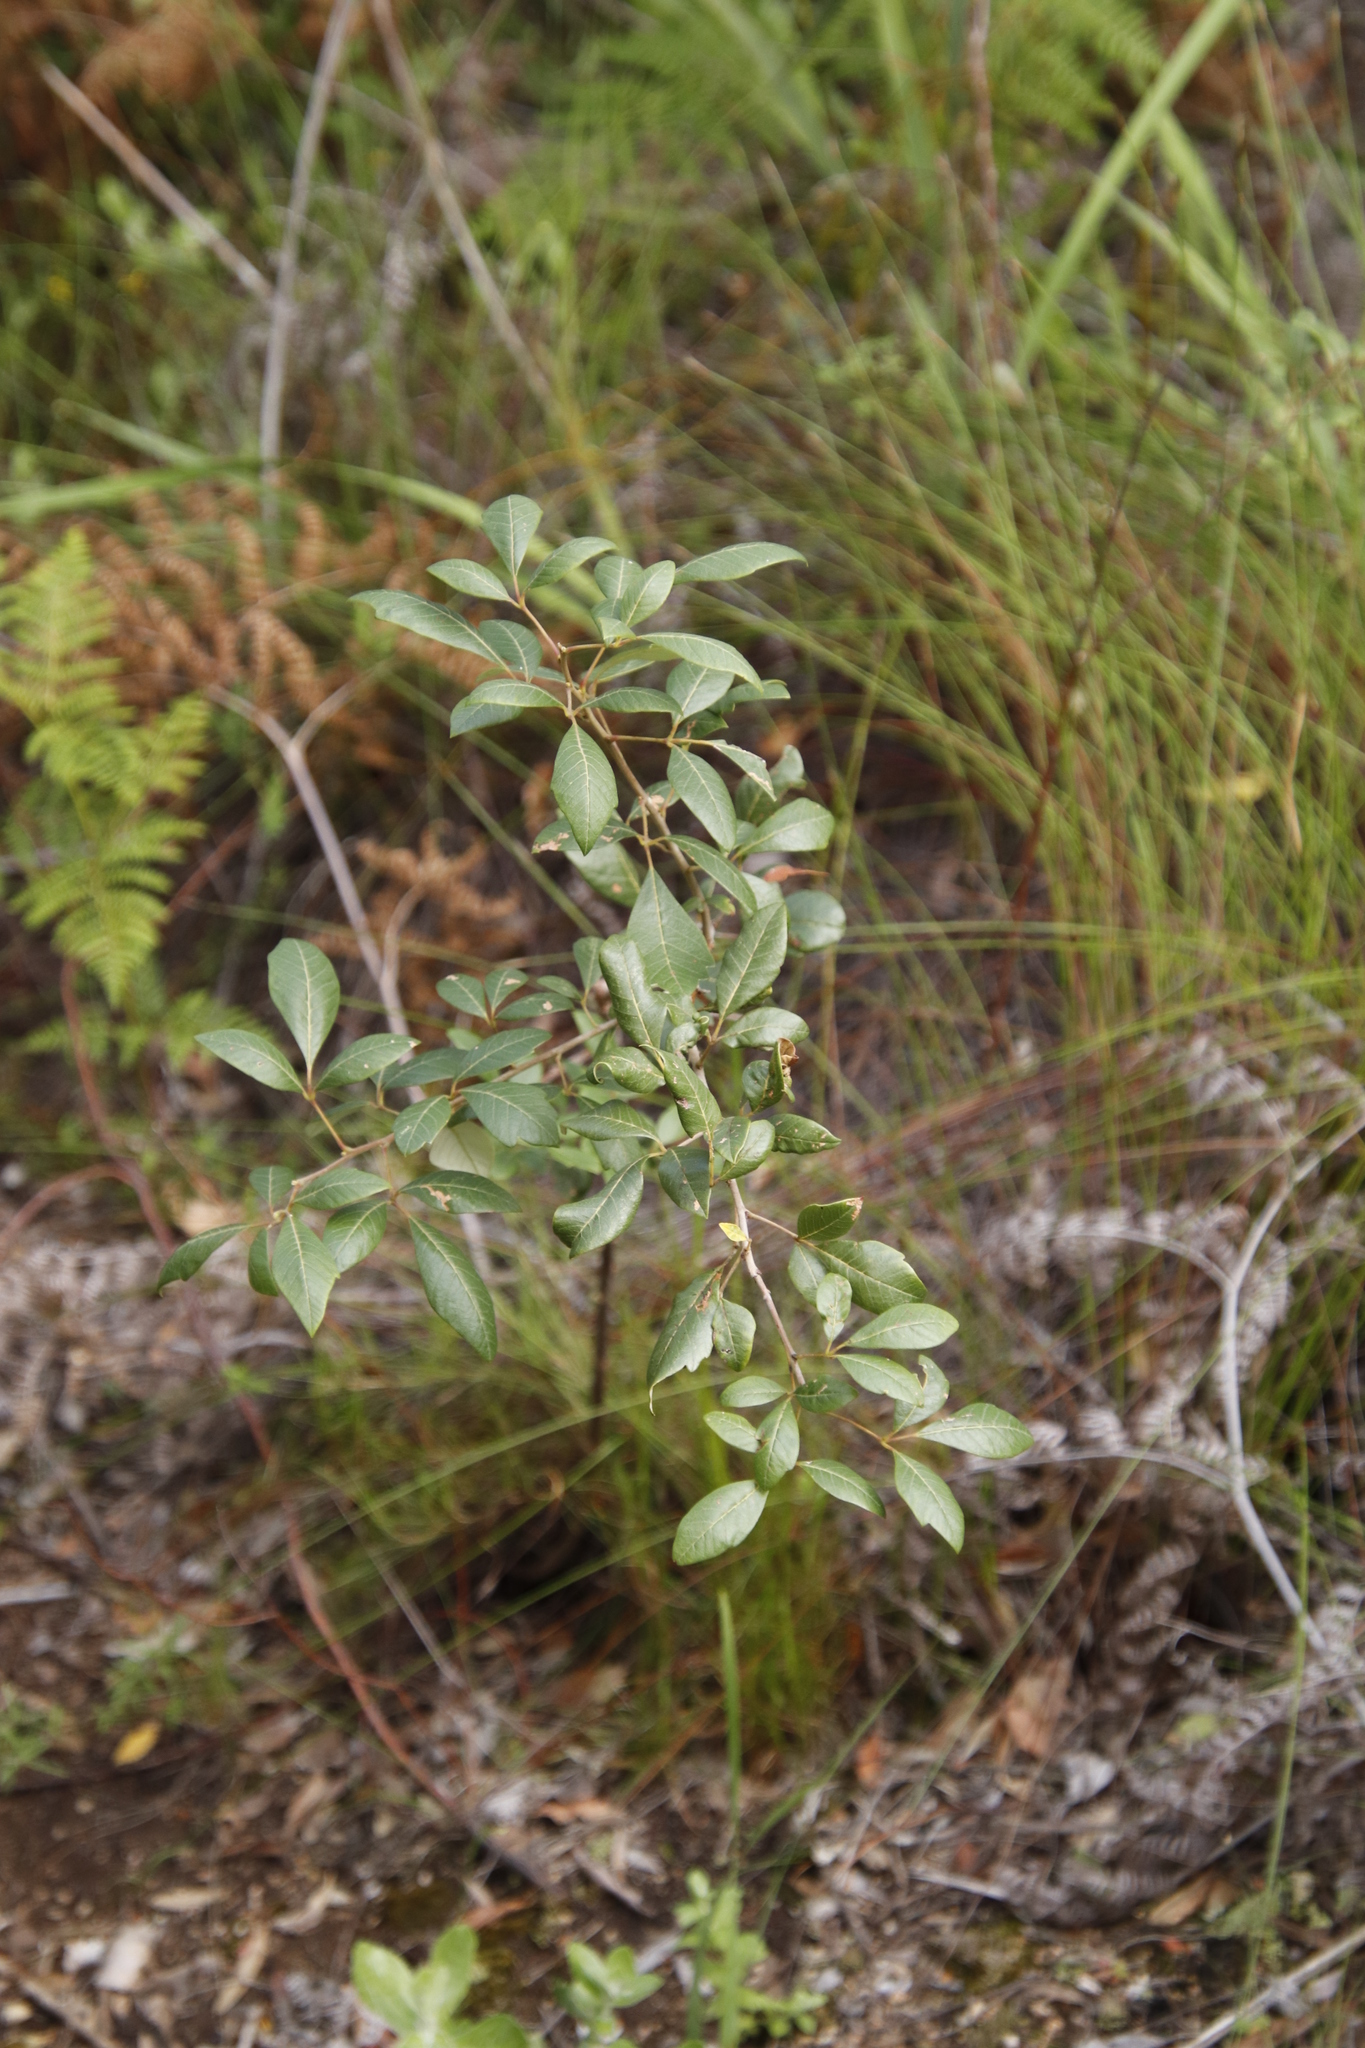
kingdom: Plantae
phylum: Tracheophyta
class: Magnoliopsida
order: Sapindales
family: Anacardiaceae
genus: Searsia
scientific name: Searsia tomentosa
